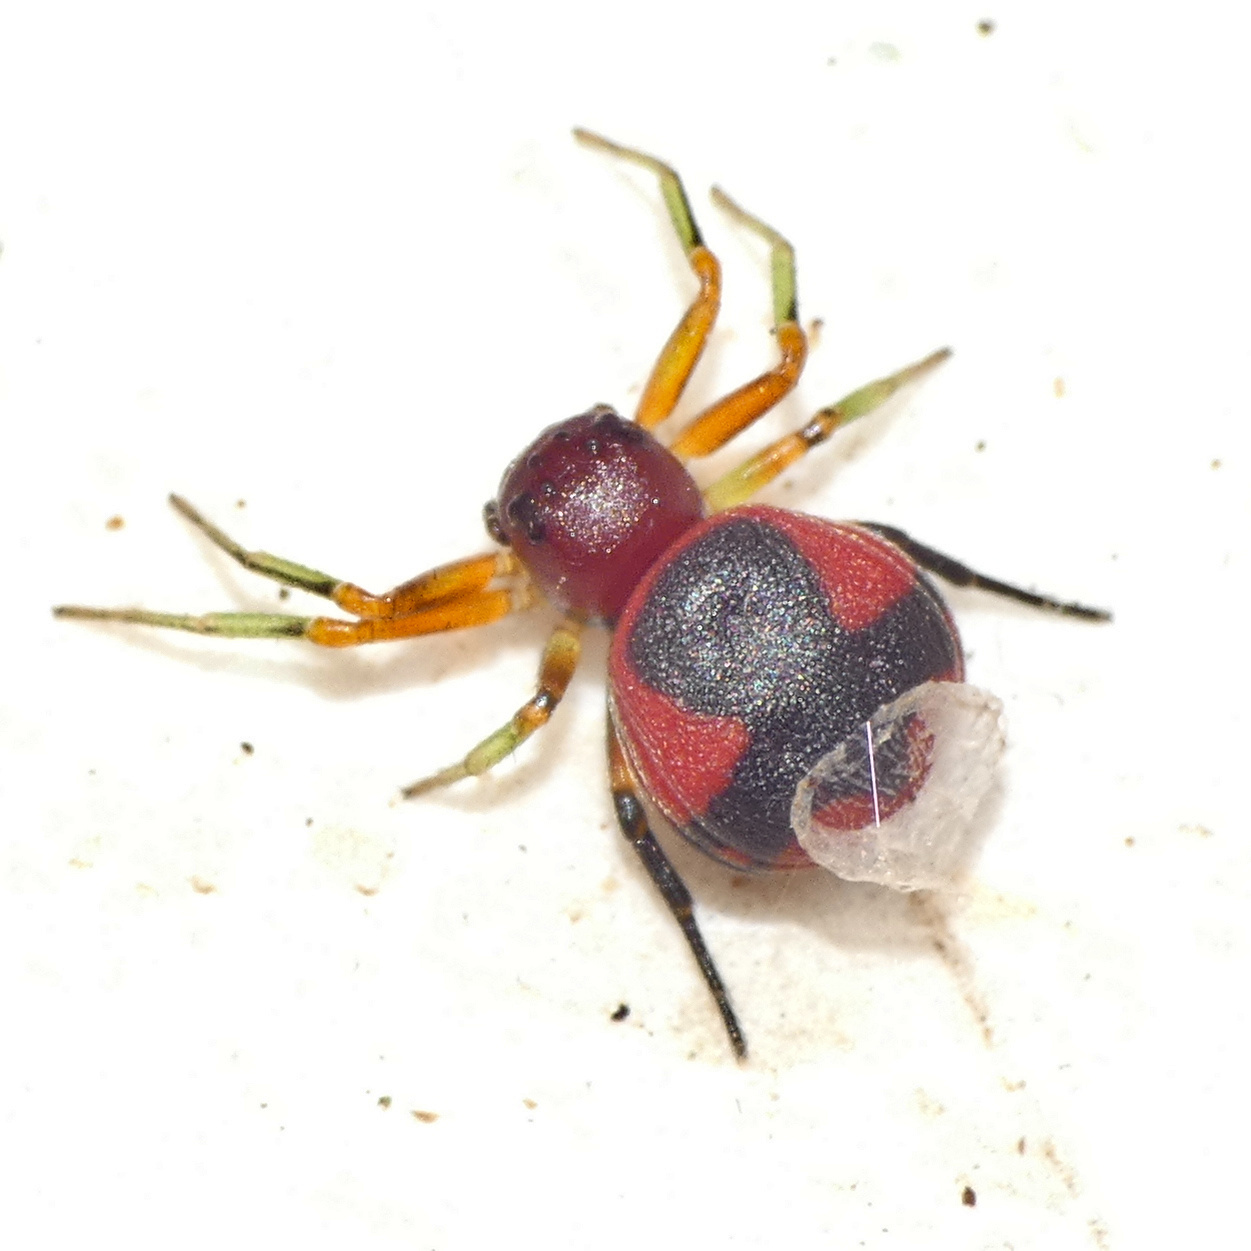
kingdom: Animalia
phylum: Arthropoda
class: Arachnida
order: Araneae
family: Thomisidae
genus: Mystaria
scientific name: Mystaria savannensis
